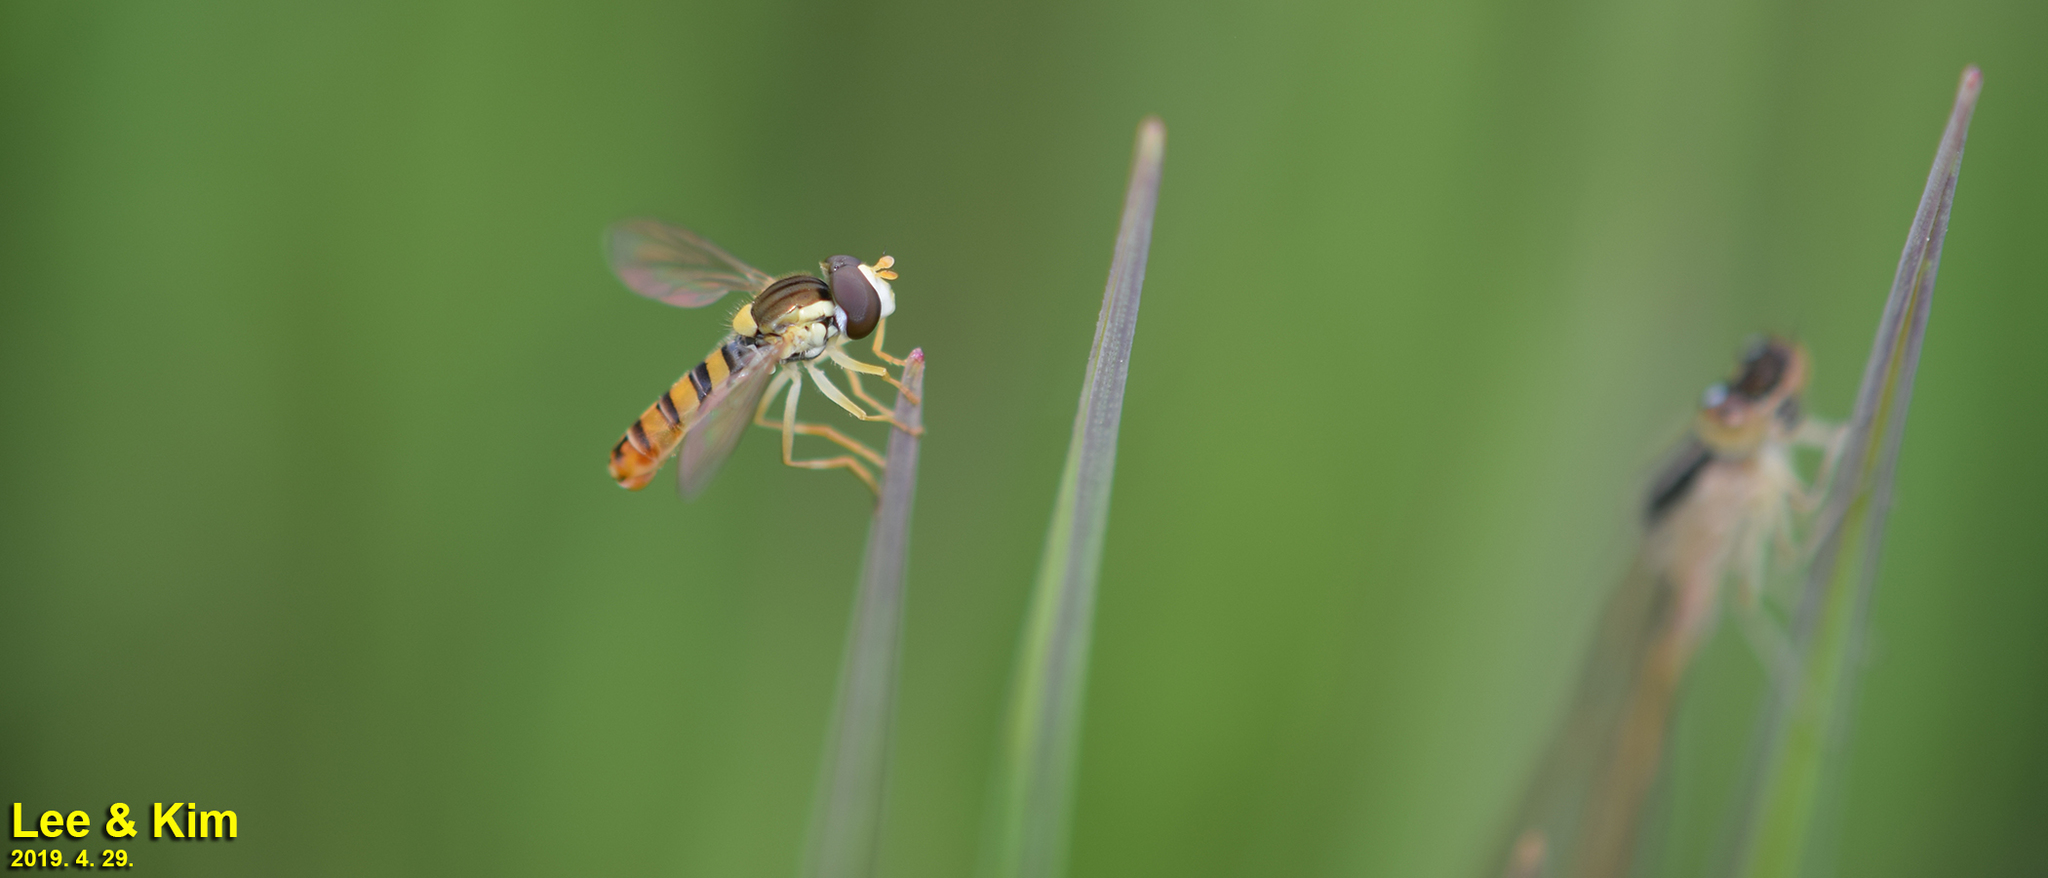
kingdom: Animalia
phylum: Arthropoda
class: Insecta
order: Diptera
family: Syrphidae
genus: Sphaerophoria
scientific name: Sphaerophoria scripta
